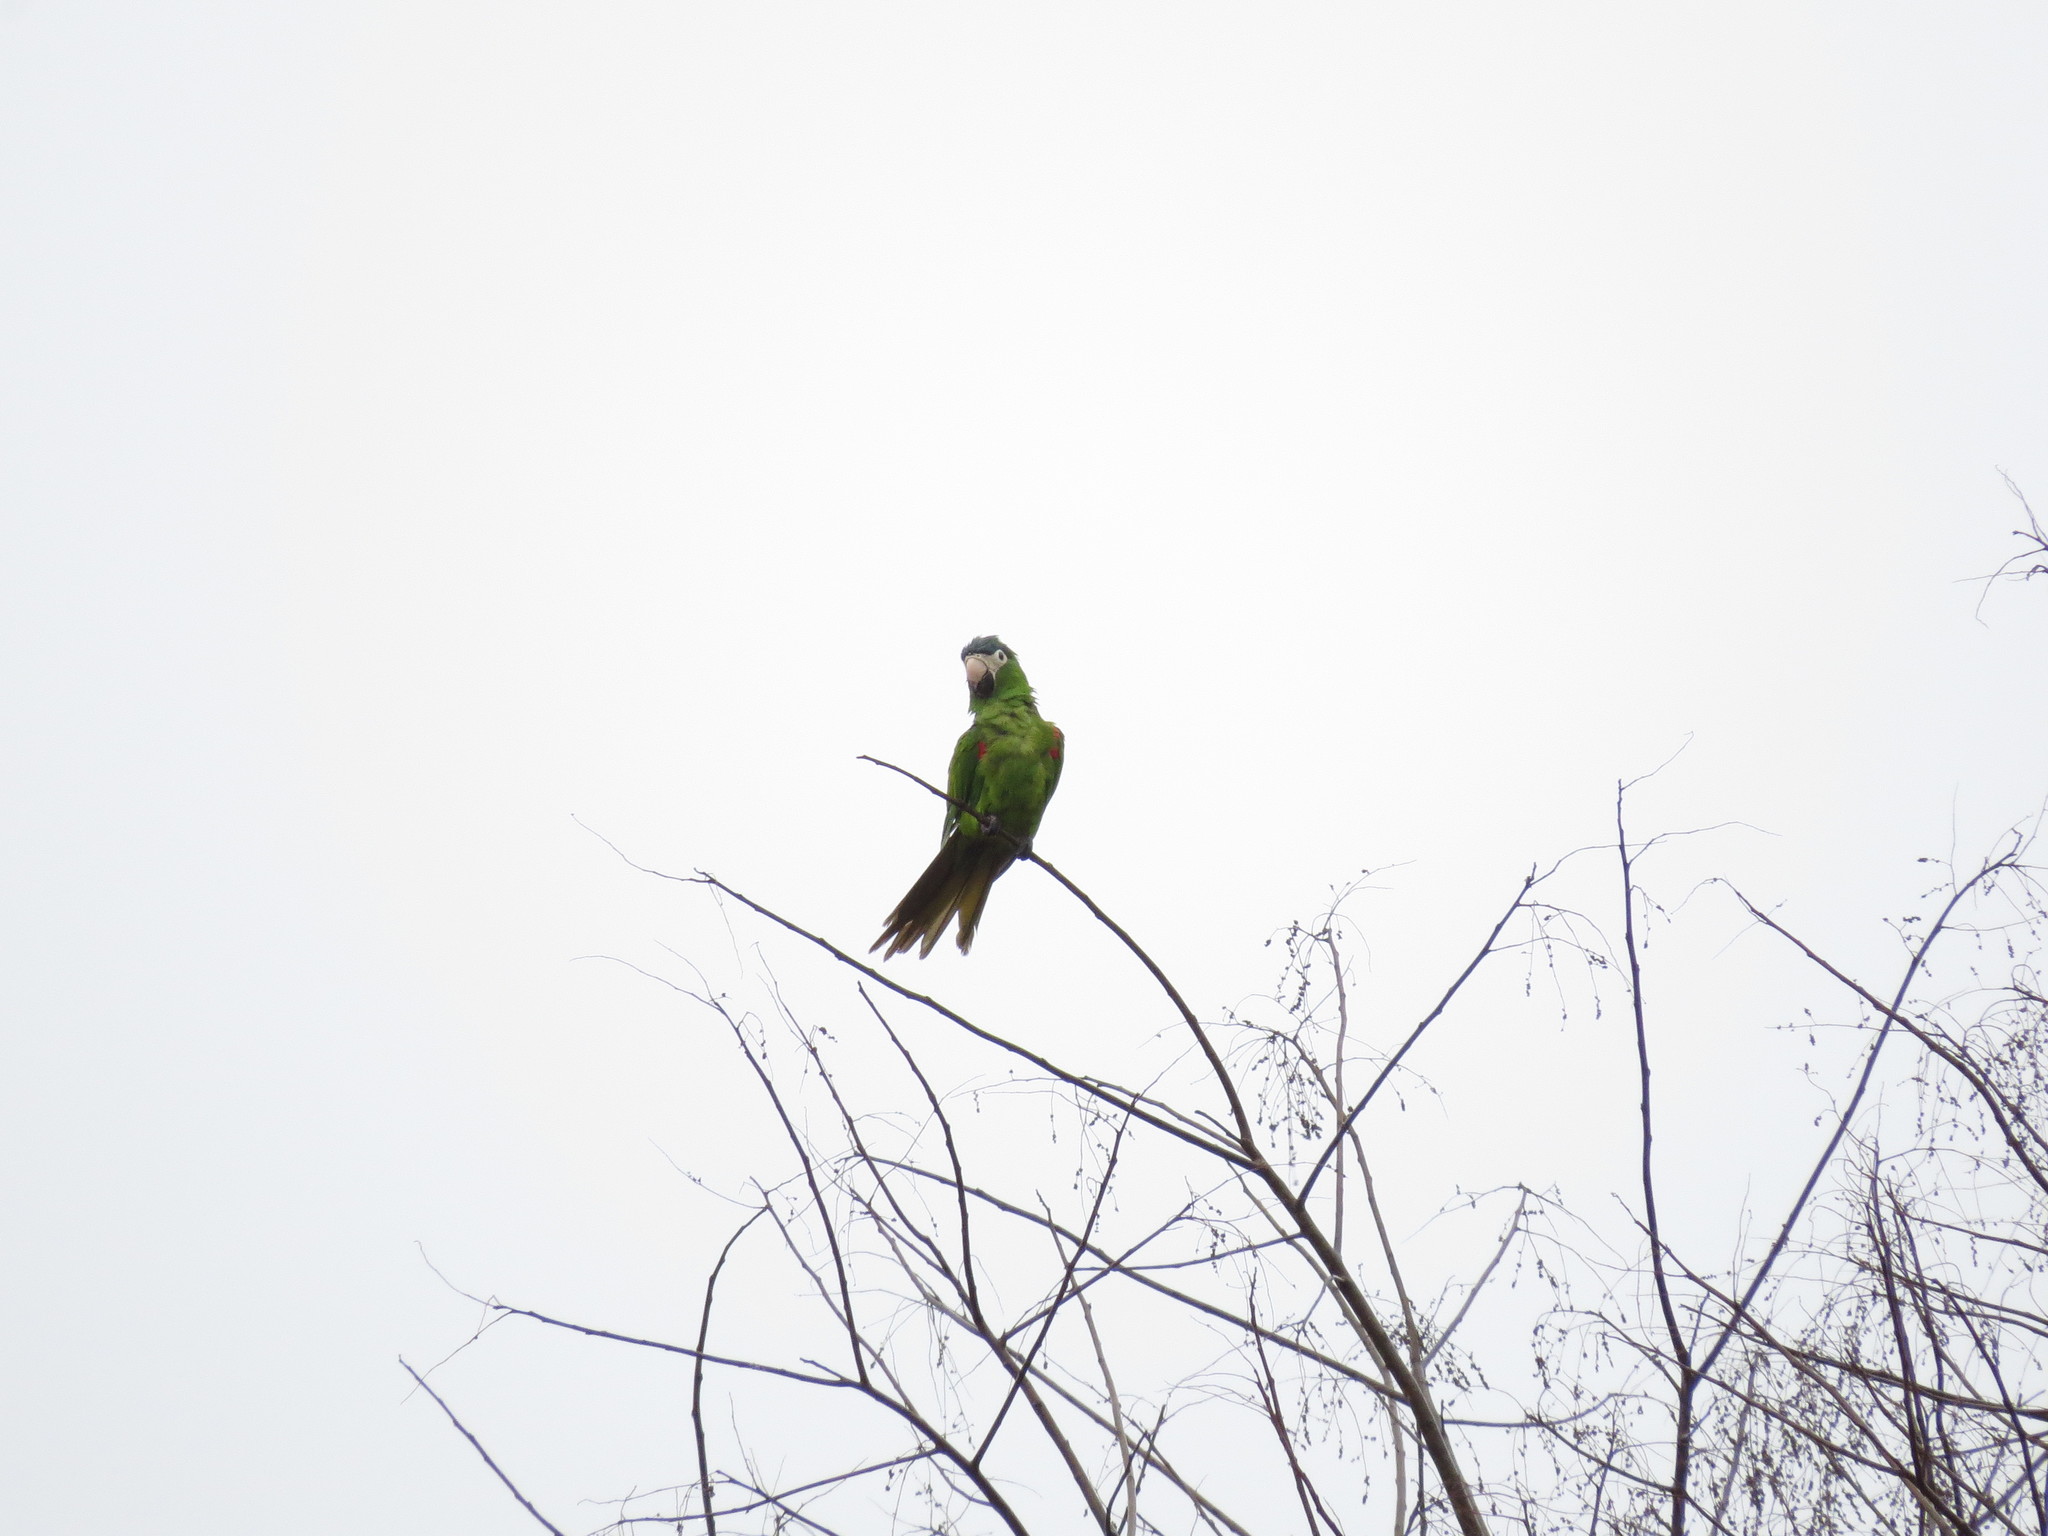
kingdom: Animalia
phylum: Chordata
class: Aves
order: Psittaciformes
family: Psittacidae
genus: Diopsittaca
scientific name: Diopsittaca nobilis
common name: Red-shouldered macaw
